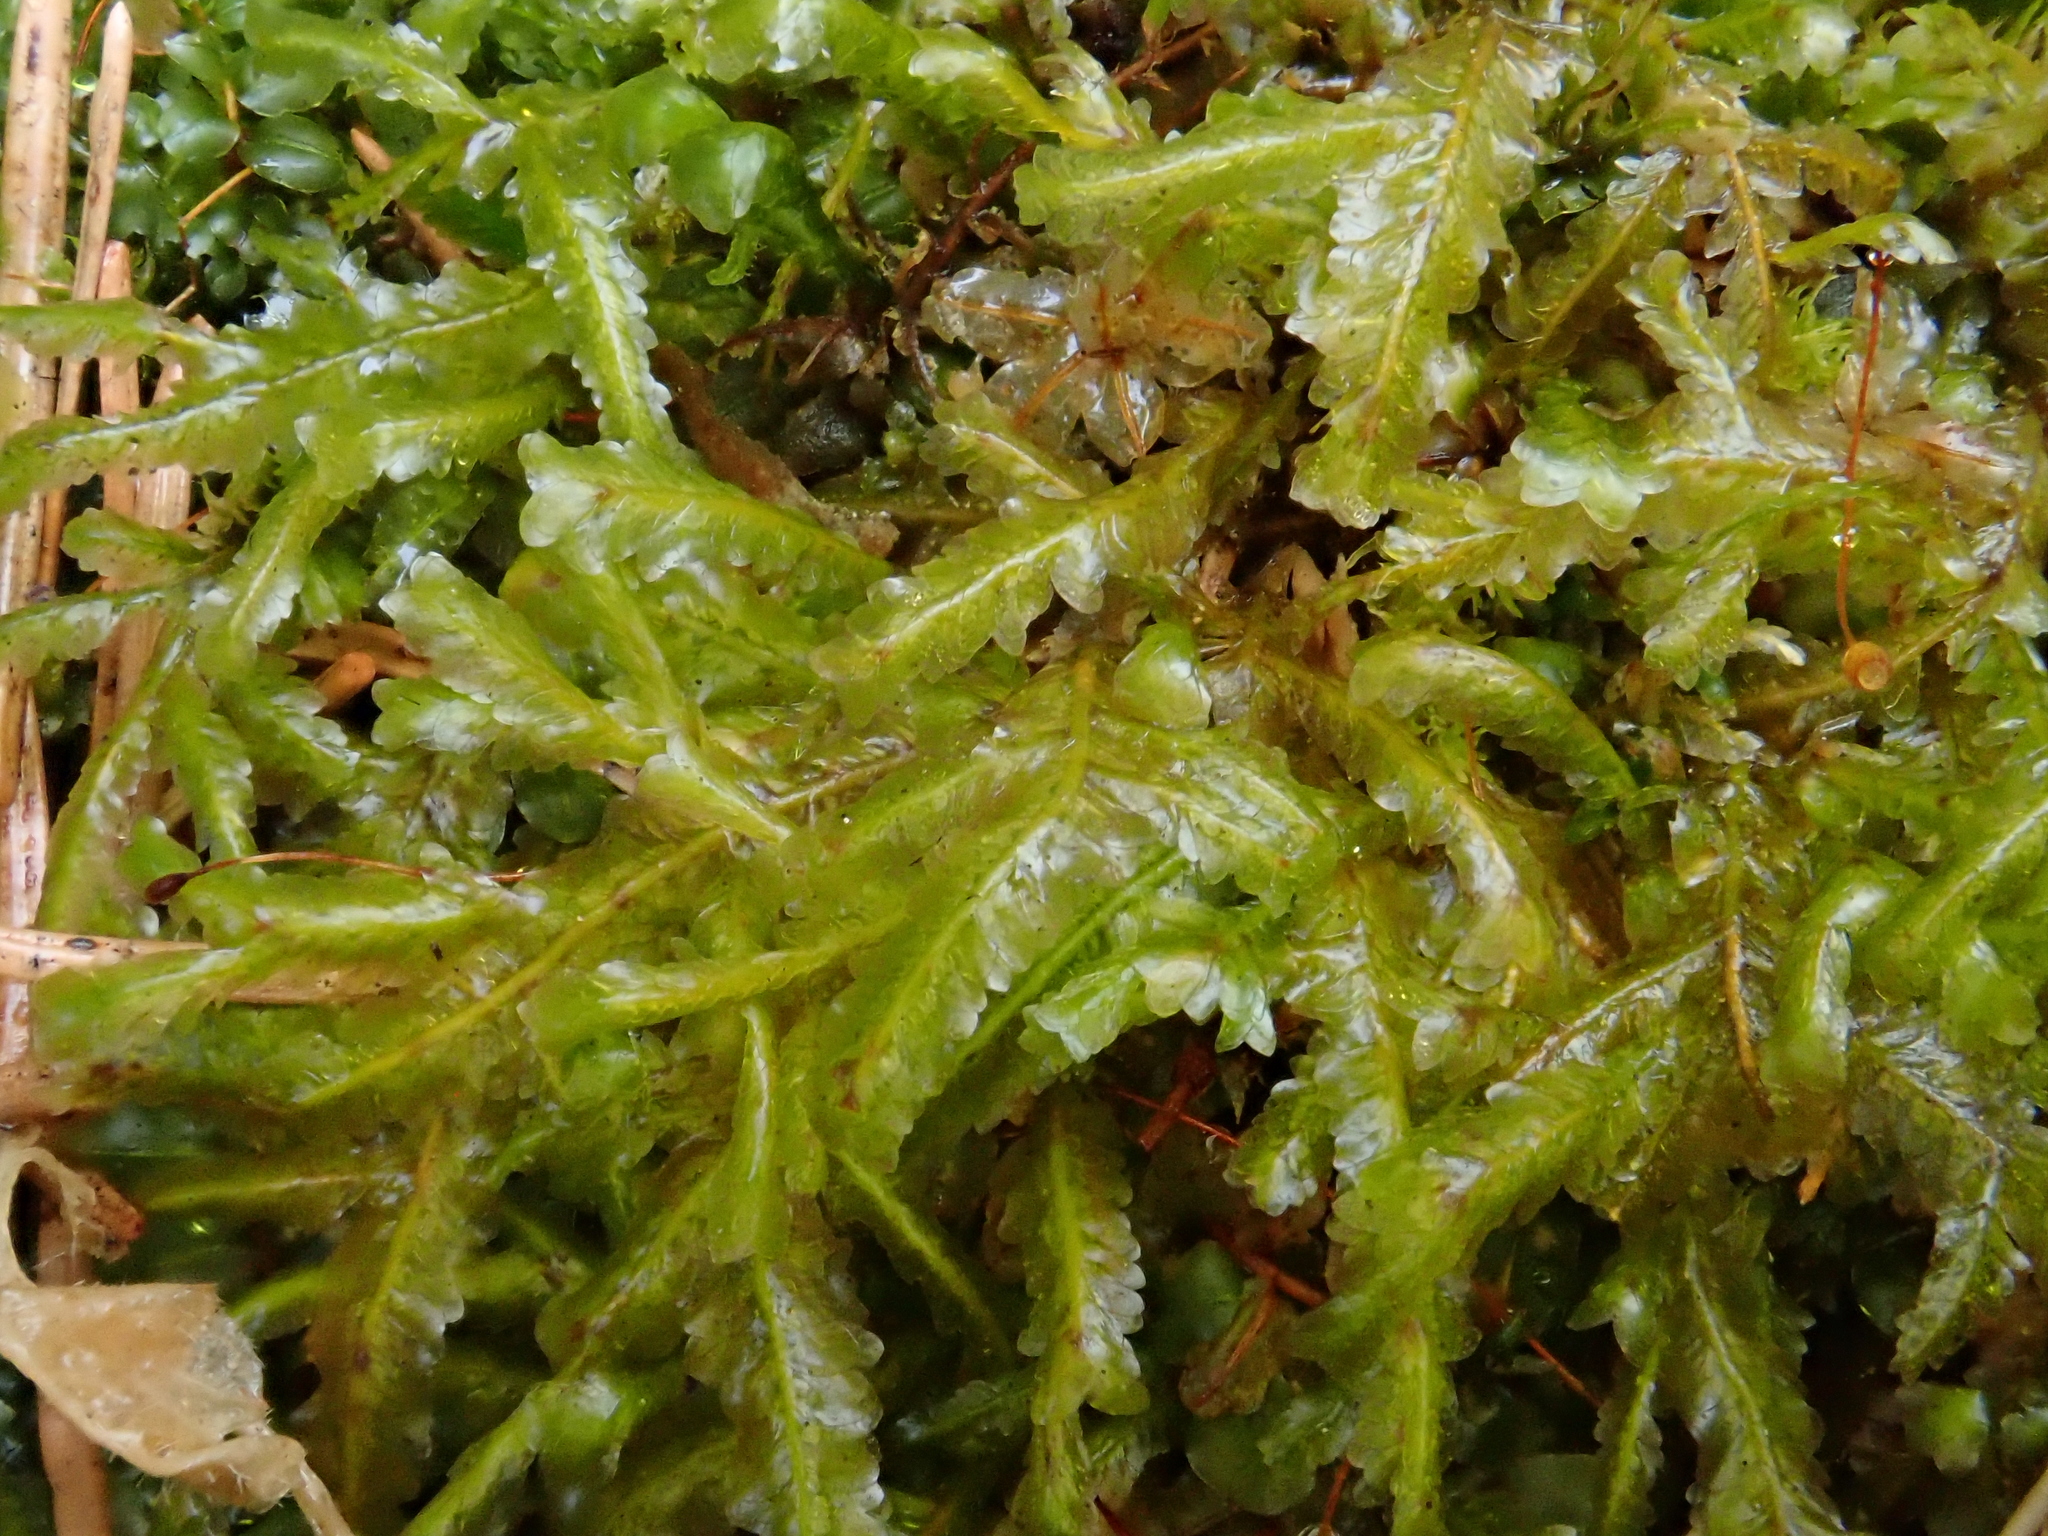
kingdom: Plantae
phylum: Bryophyta
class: Bryopsida
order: Hypnales
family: Neckeraceae
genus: Homalia
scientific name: Homalia trichomanoides
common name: Lime homalia moss
